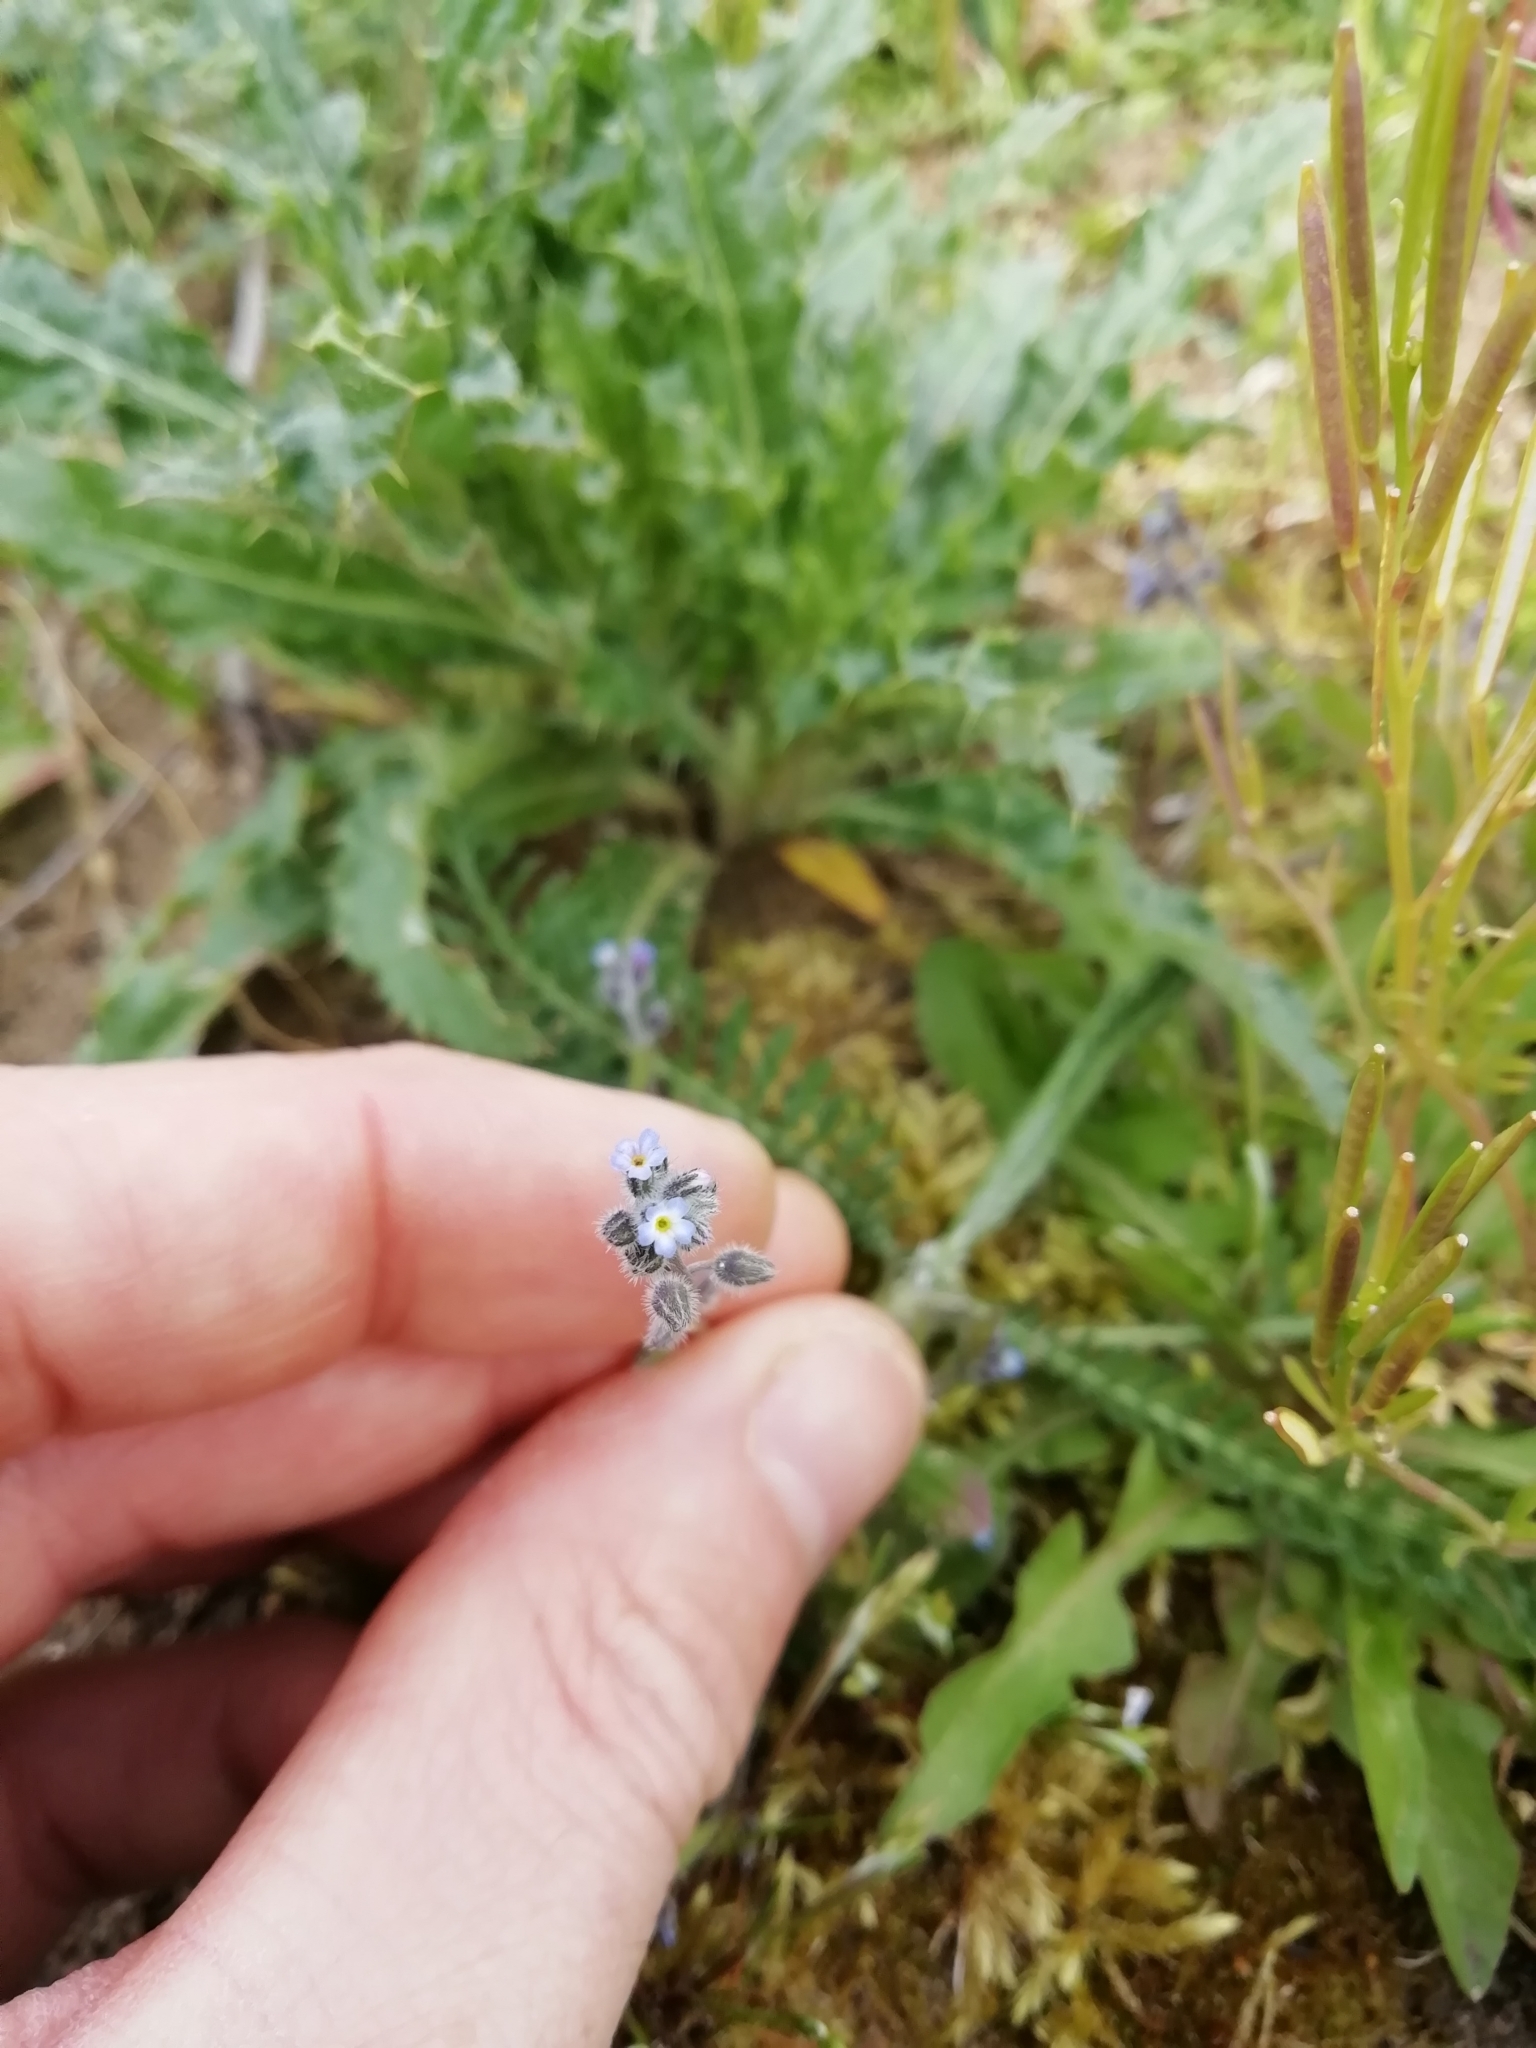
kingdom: Plantae
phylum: Tracheophyta
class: Magnoliopsida
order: Boraginales
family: Boraginaceae
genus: Myosotis
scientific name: Myosotis arvensis
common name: Field forget-me-not
